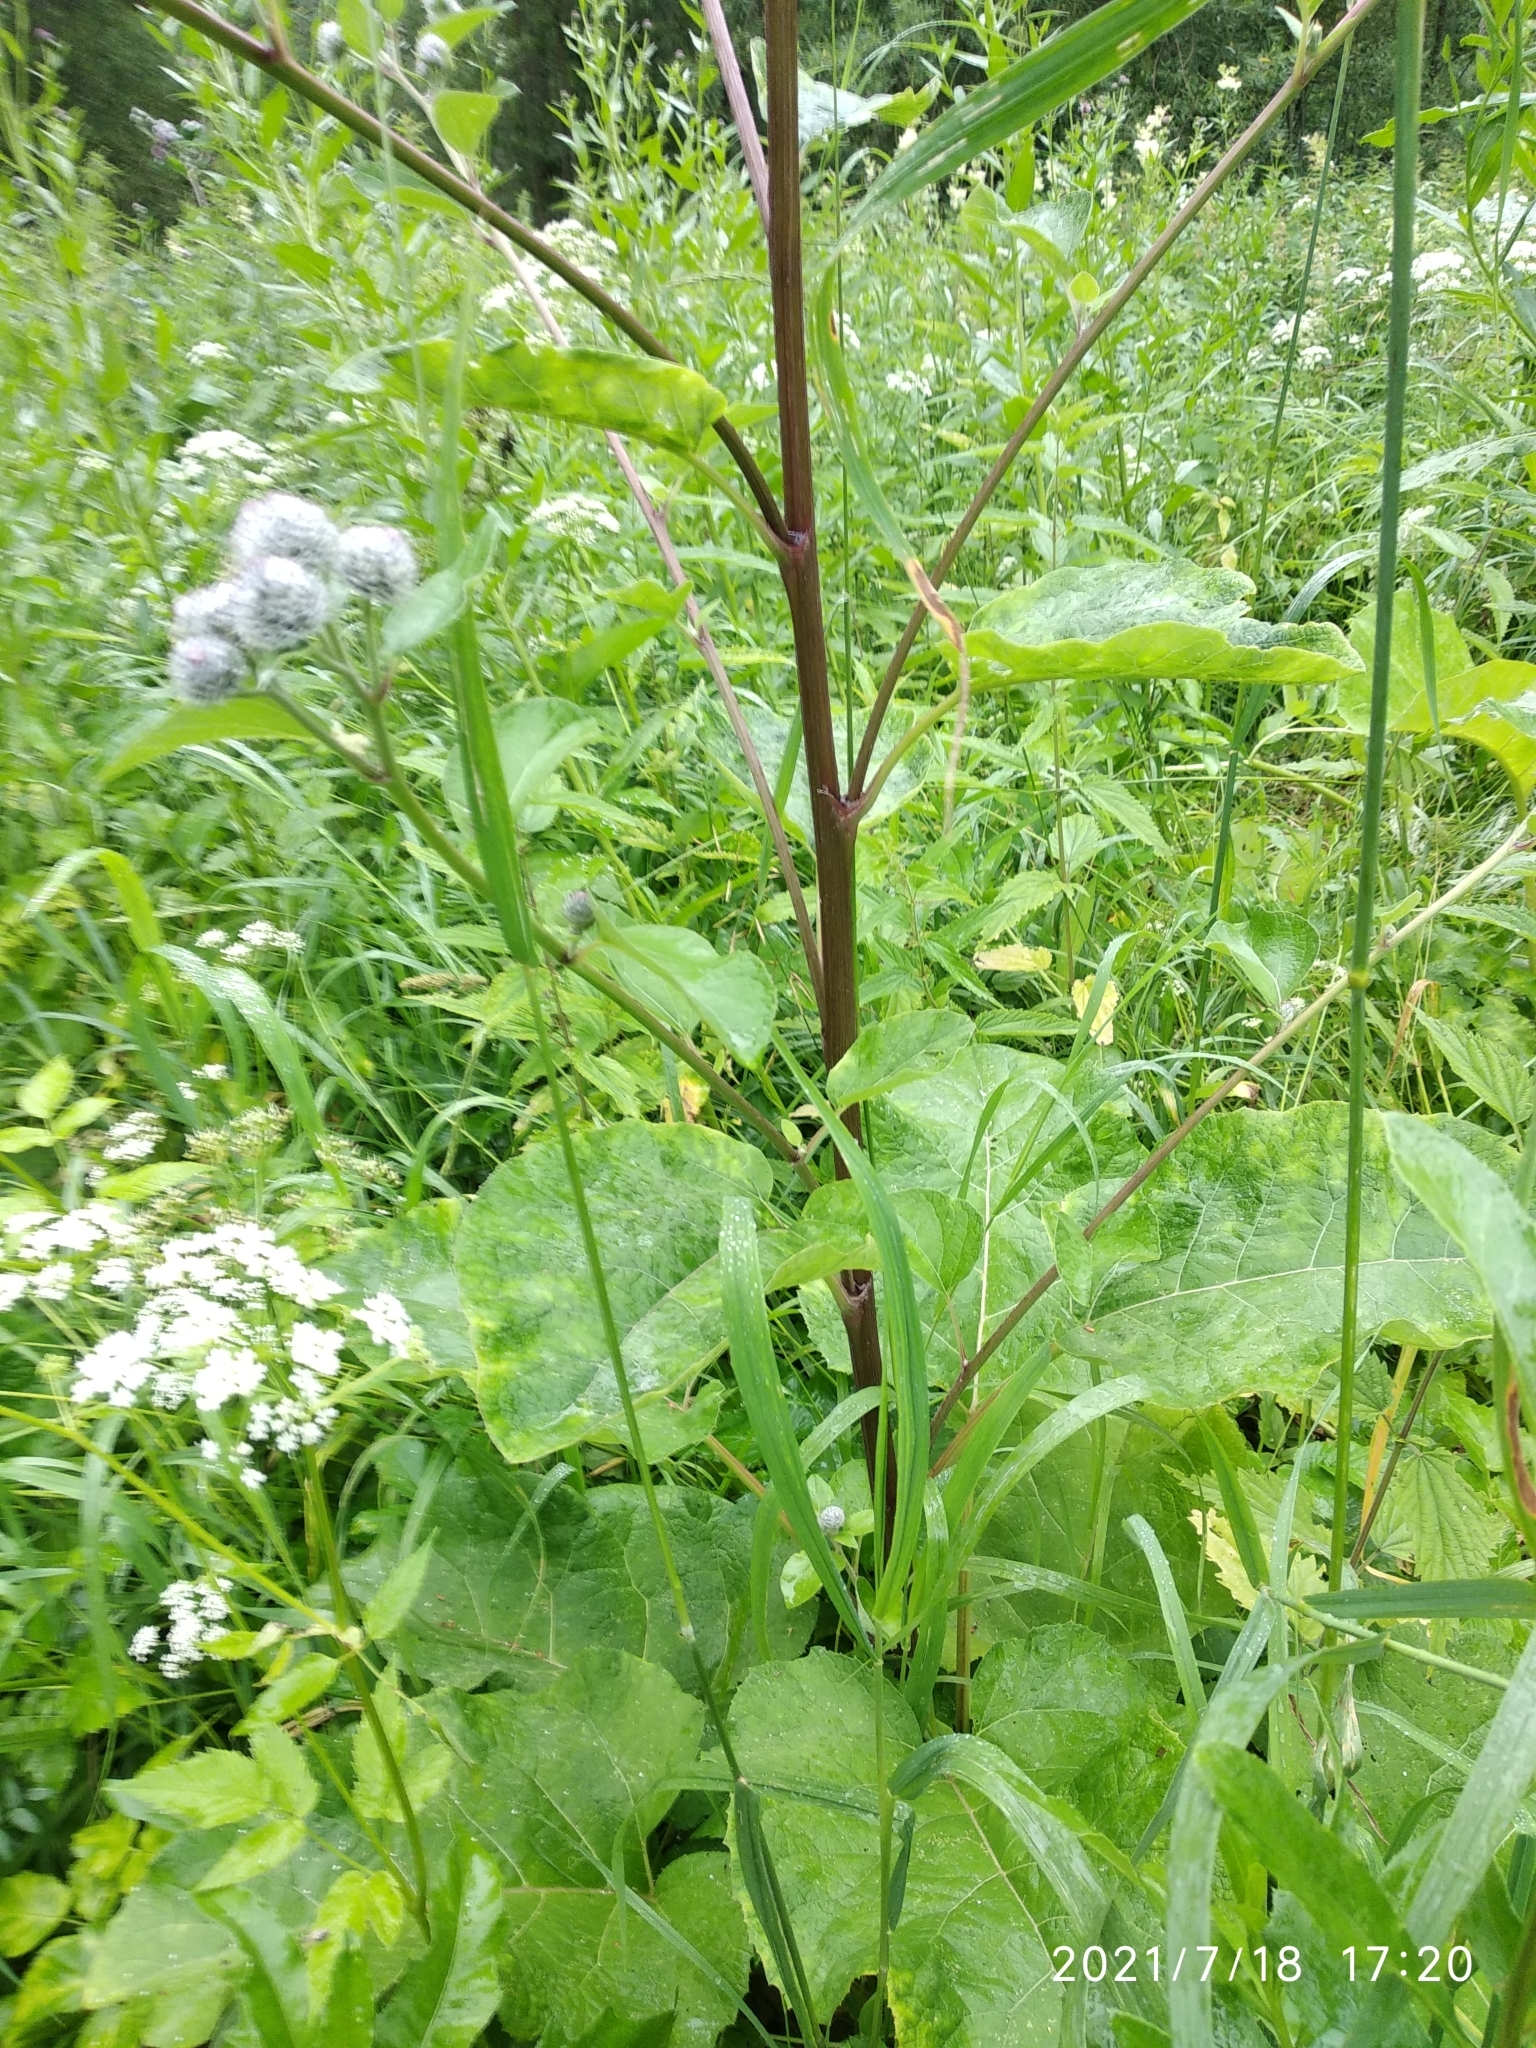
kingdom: Plantae
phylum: Tracheophyta
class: Magnoliopsida
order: Asterales
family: Asteraceae
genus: Arctium
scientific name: Arctium tomentosum
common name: Woolly burdock
